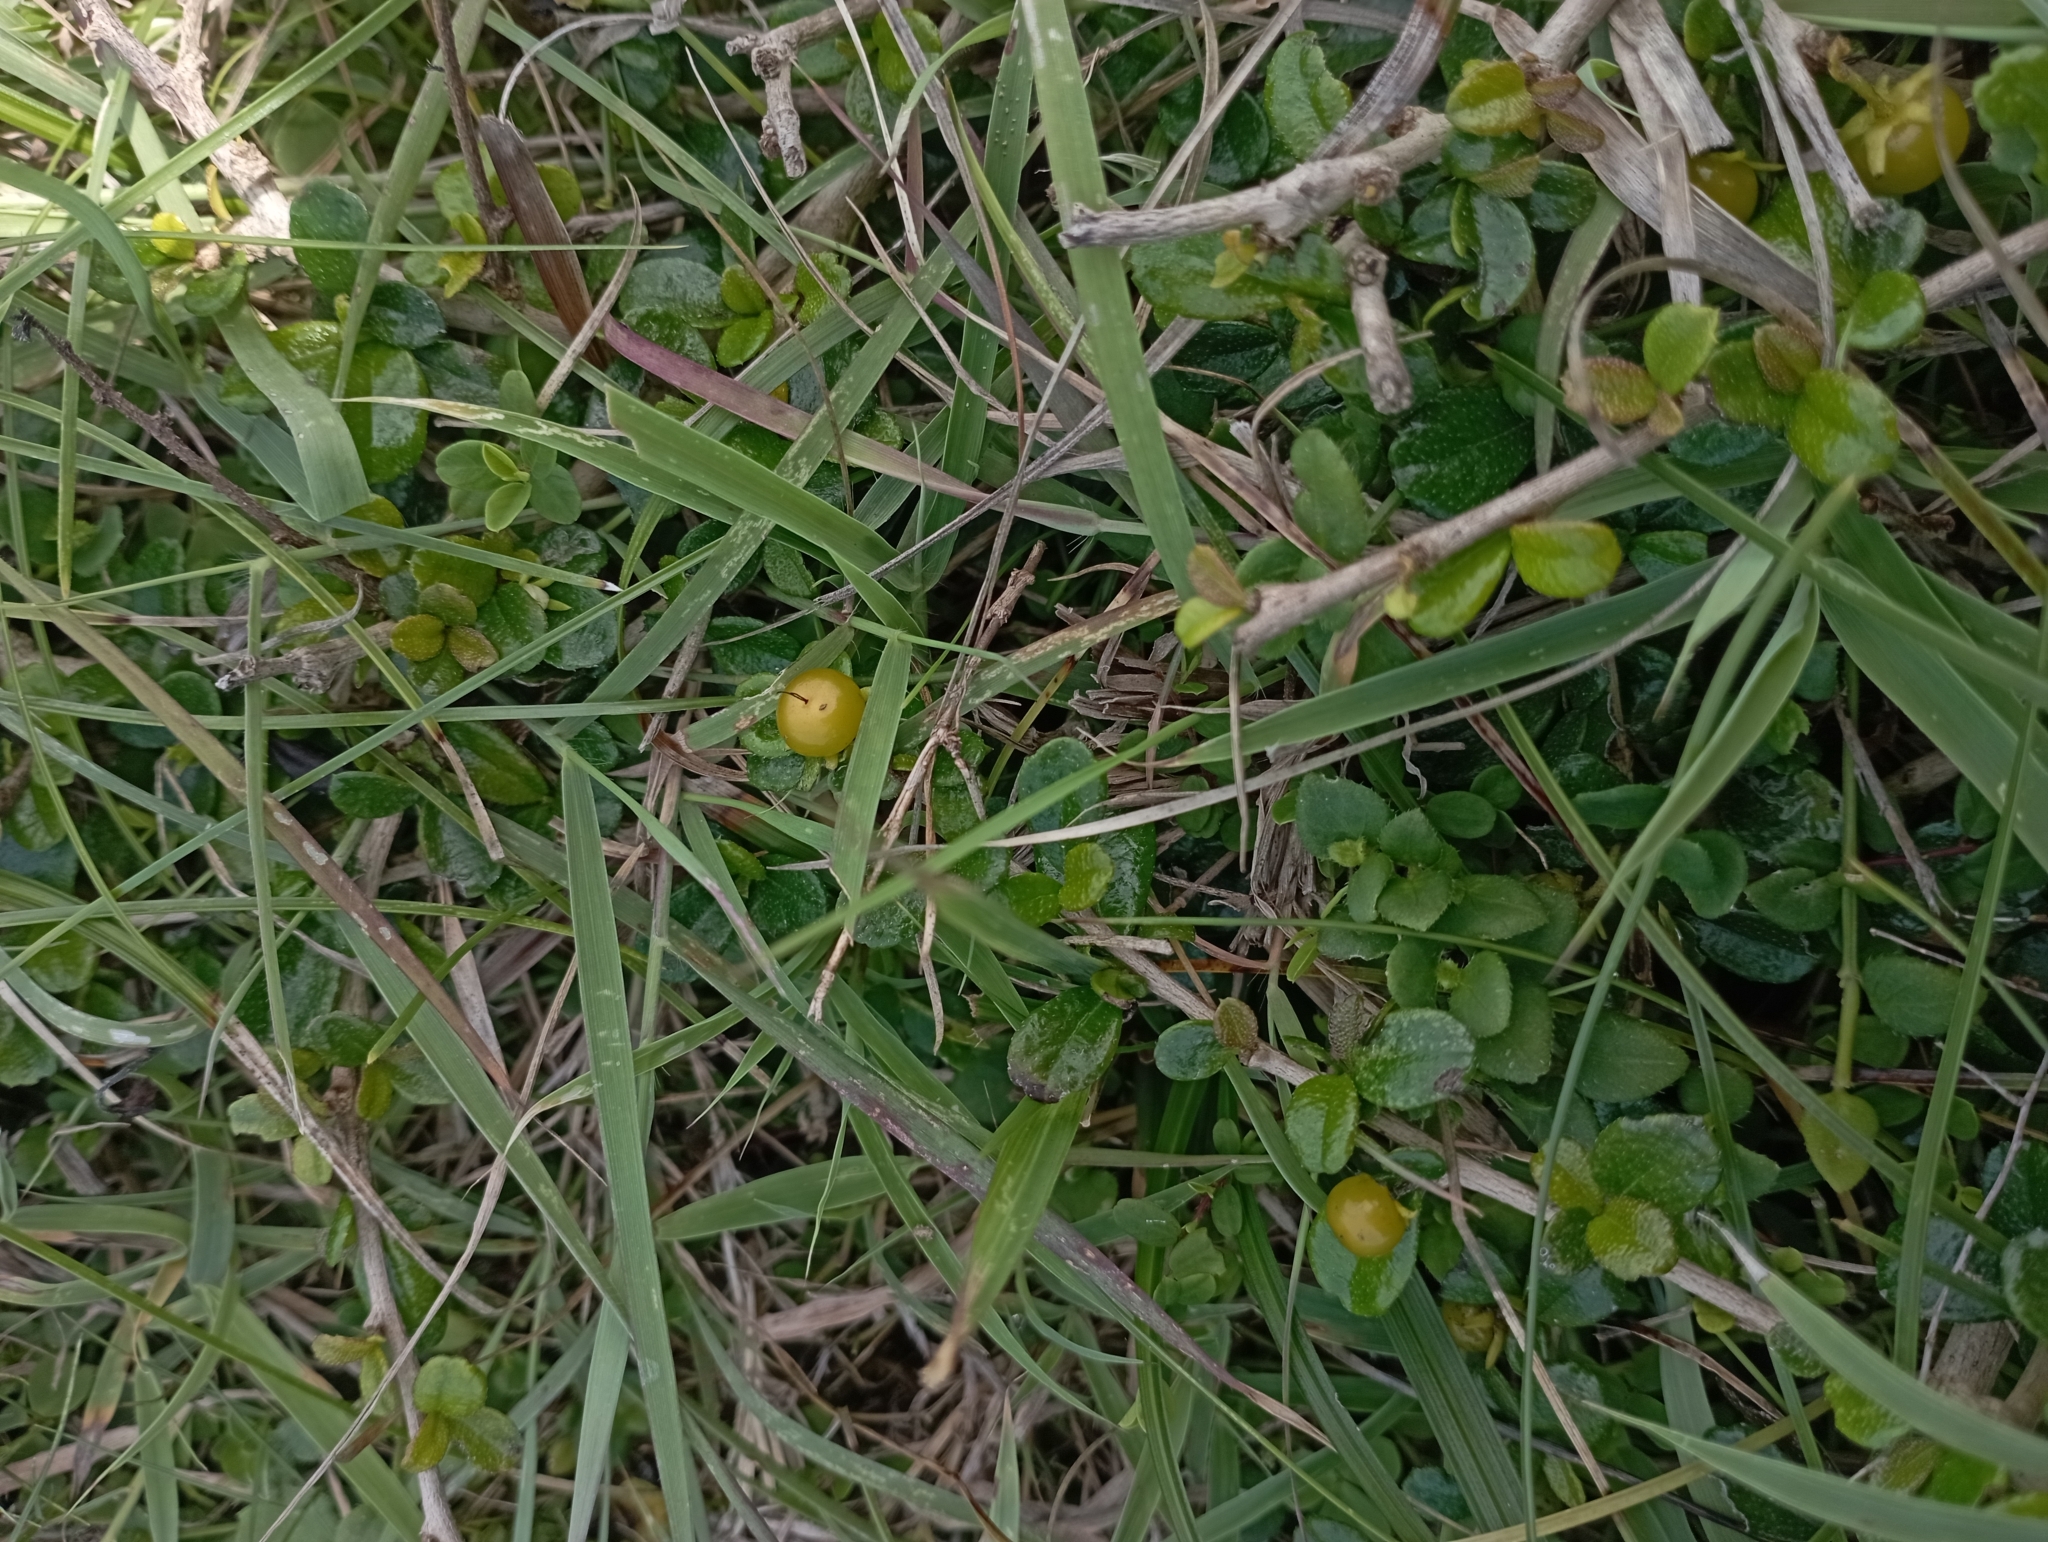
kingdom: Plantae
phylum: Tracheophyta
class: Magnoliopsida
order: Boraginales
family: Ehretiaceae
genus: Ehretia
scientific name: Ehretia microphylla
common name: Fukien-tea
